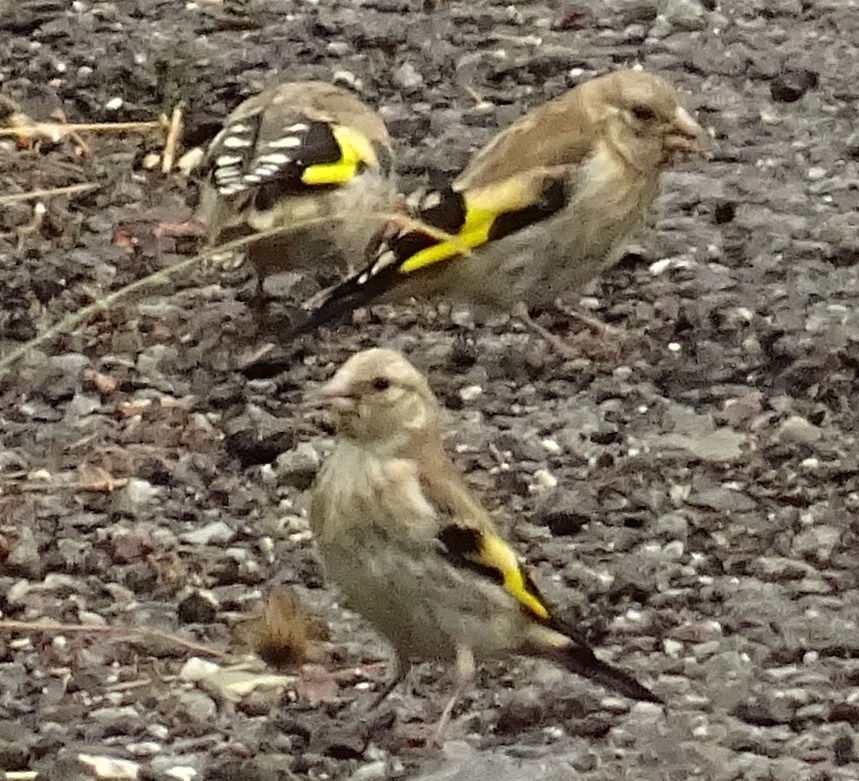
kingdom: Animalia
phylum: Chordata
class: Aves
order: Passeriformes
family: Fringillidae
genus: Carduelis
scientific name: Carduelis carduelis
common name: European goldfinch
